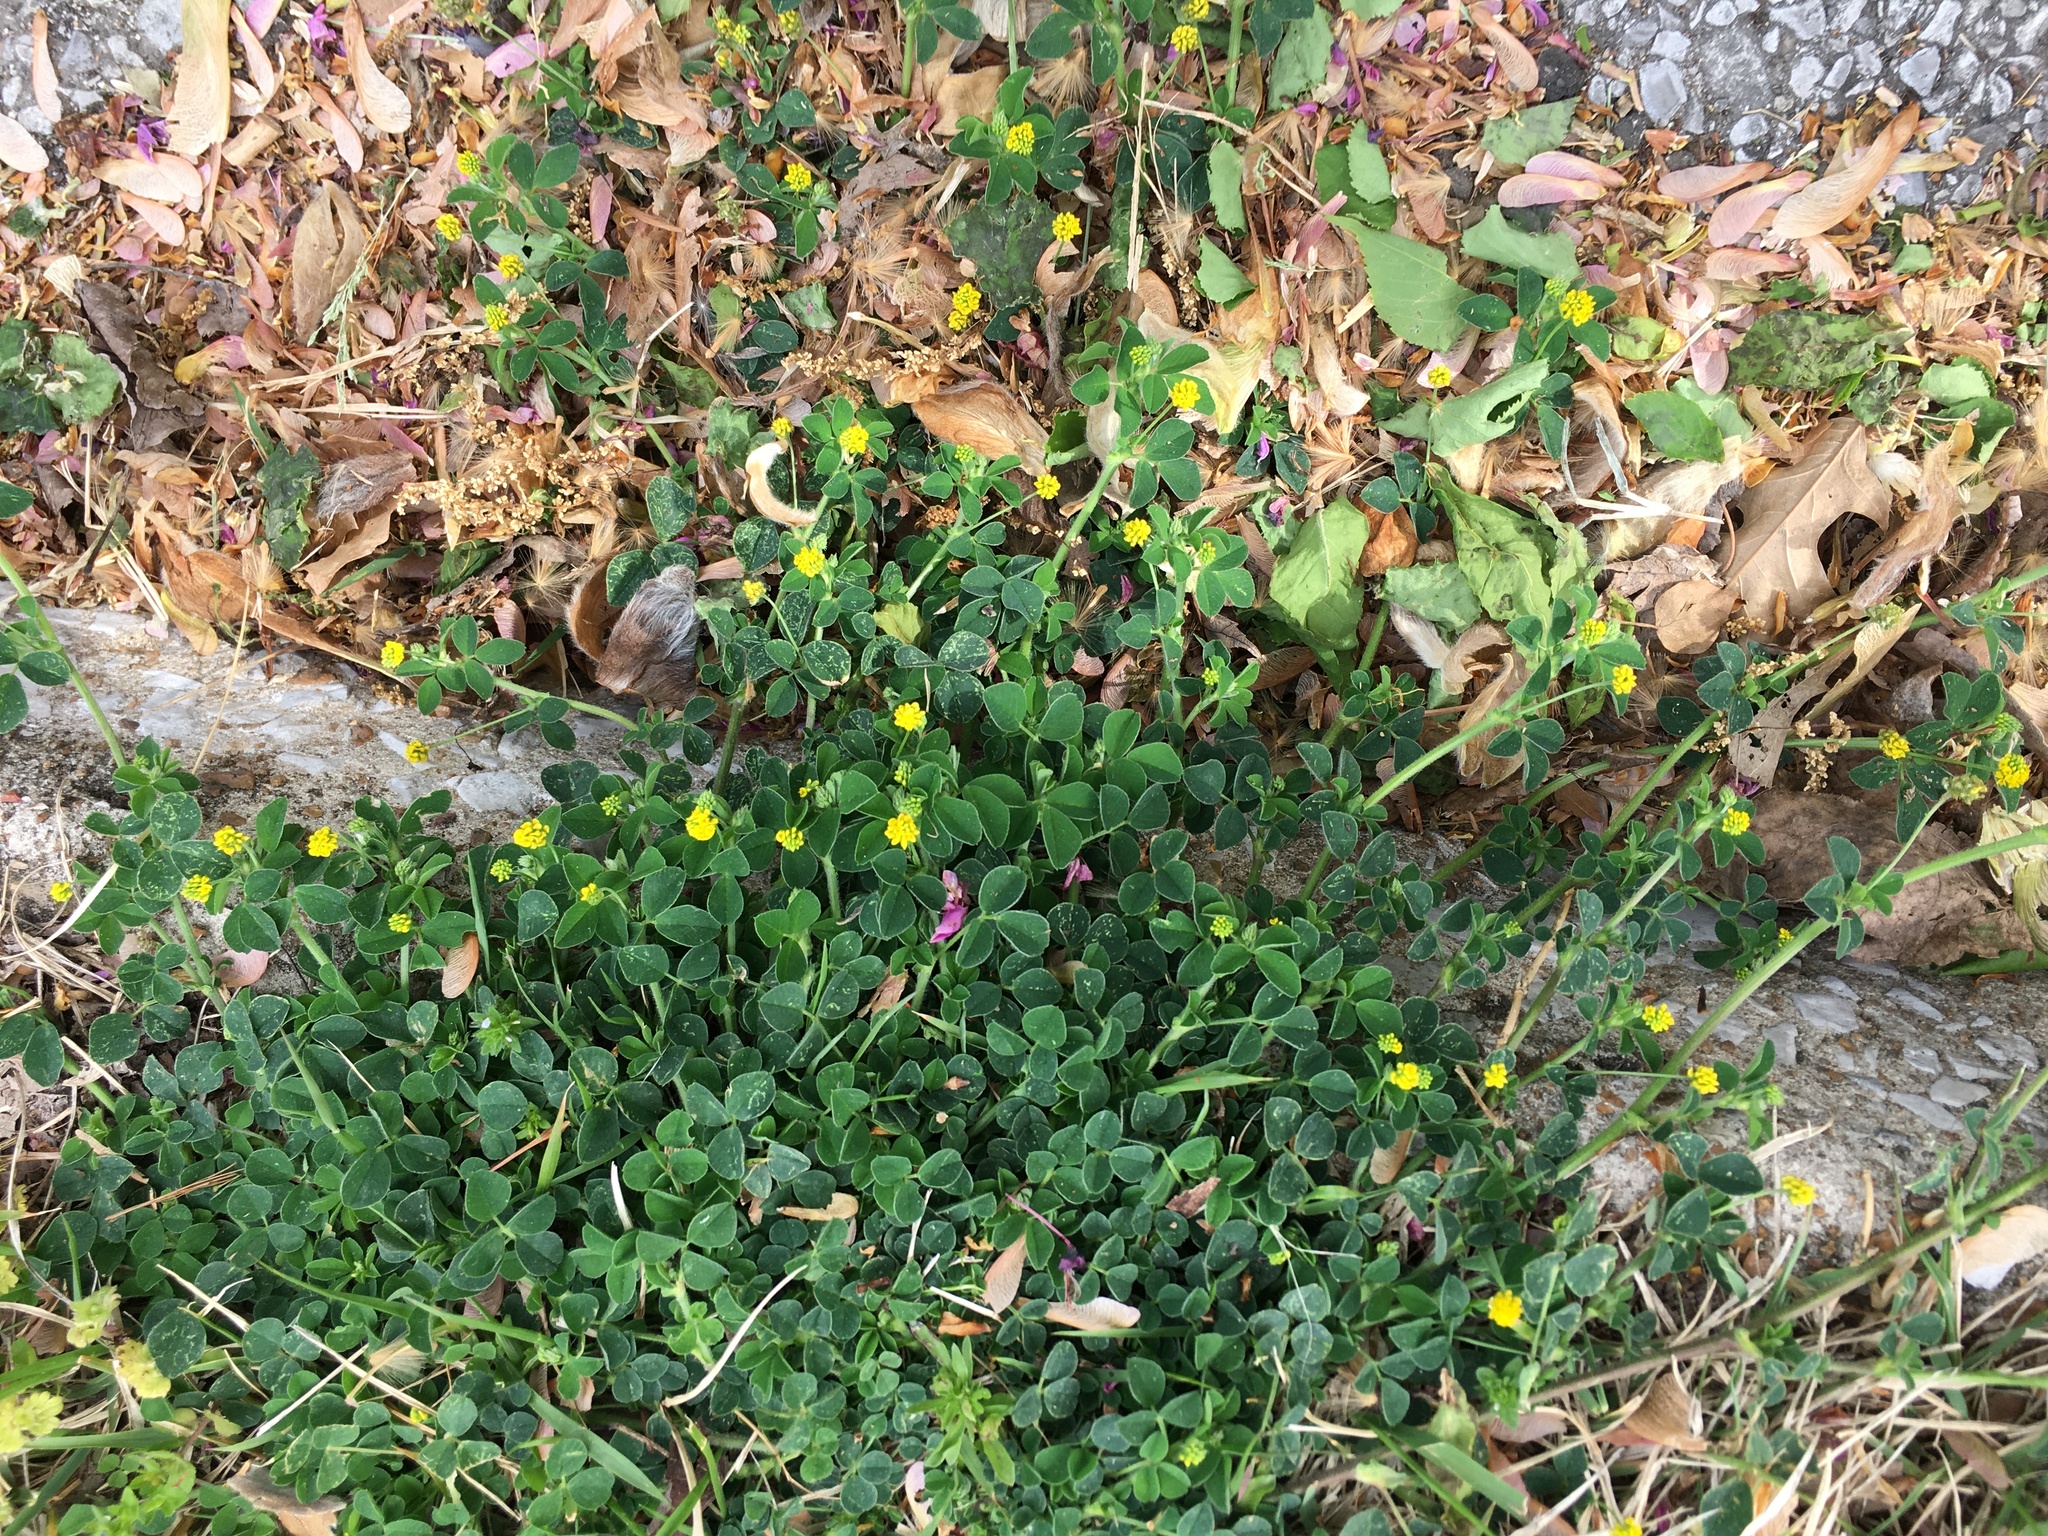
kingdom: Plantae
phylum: Tracheophyta
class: Magnoliopsida
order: Fabales
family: Fabaceae
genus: Medicago
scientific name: Medicago lupulina
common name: Black medick
